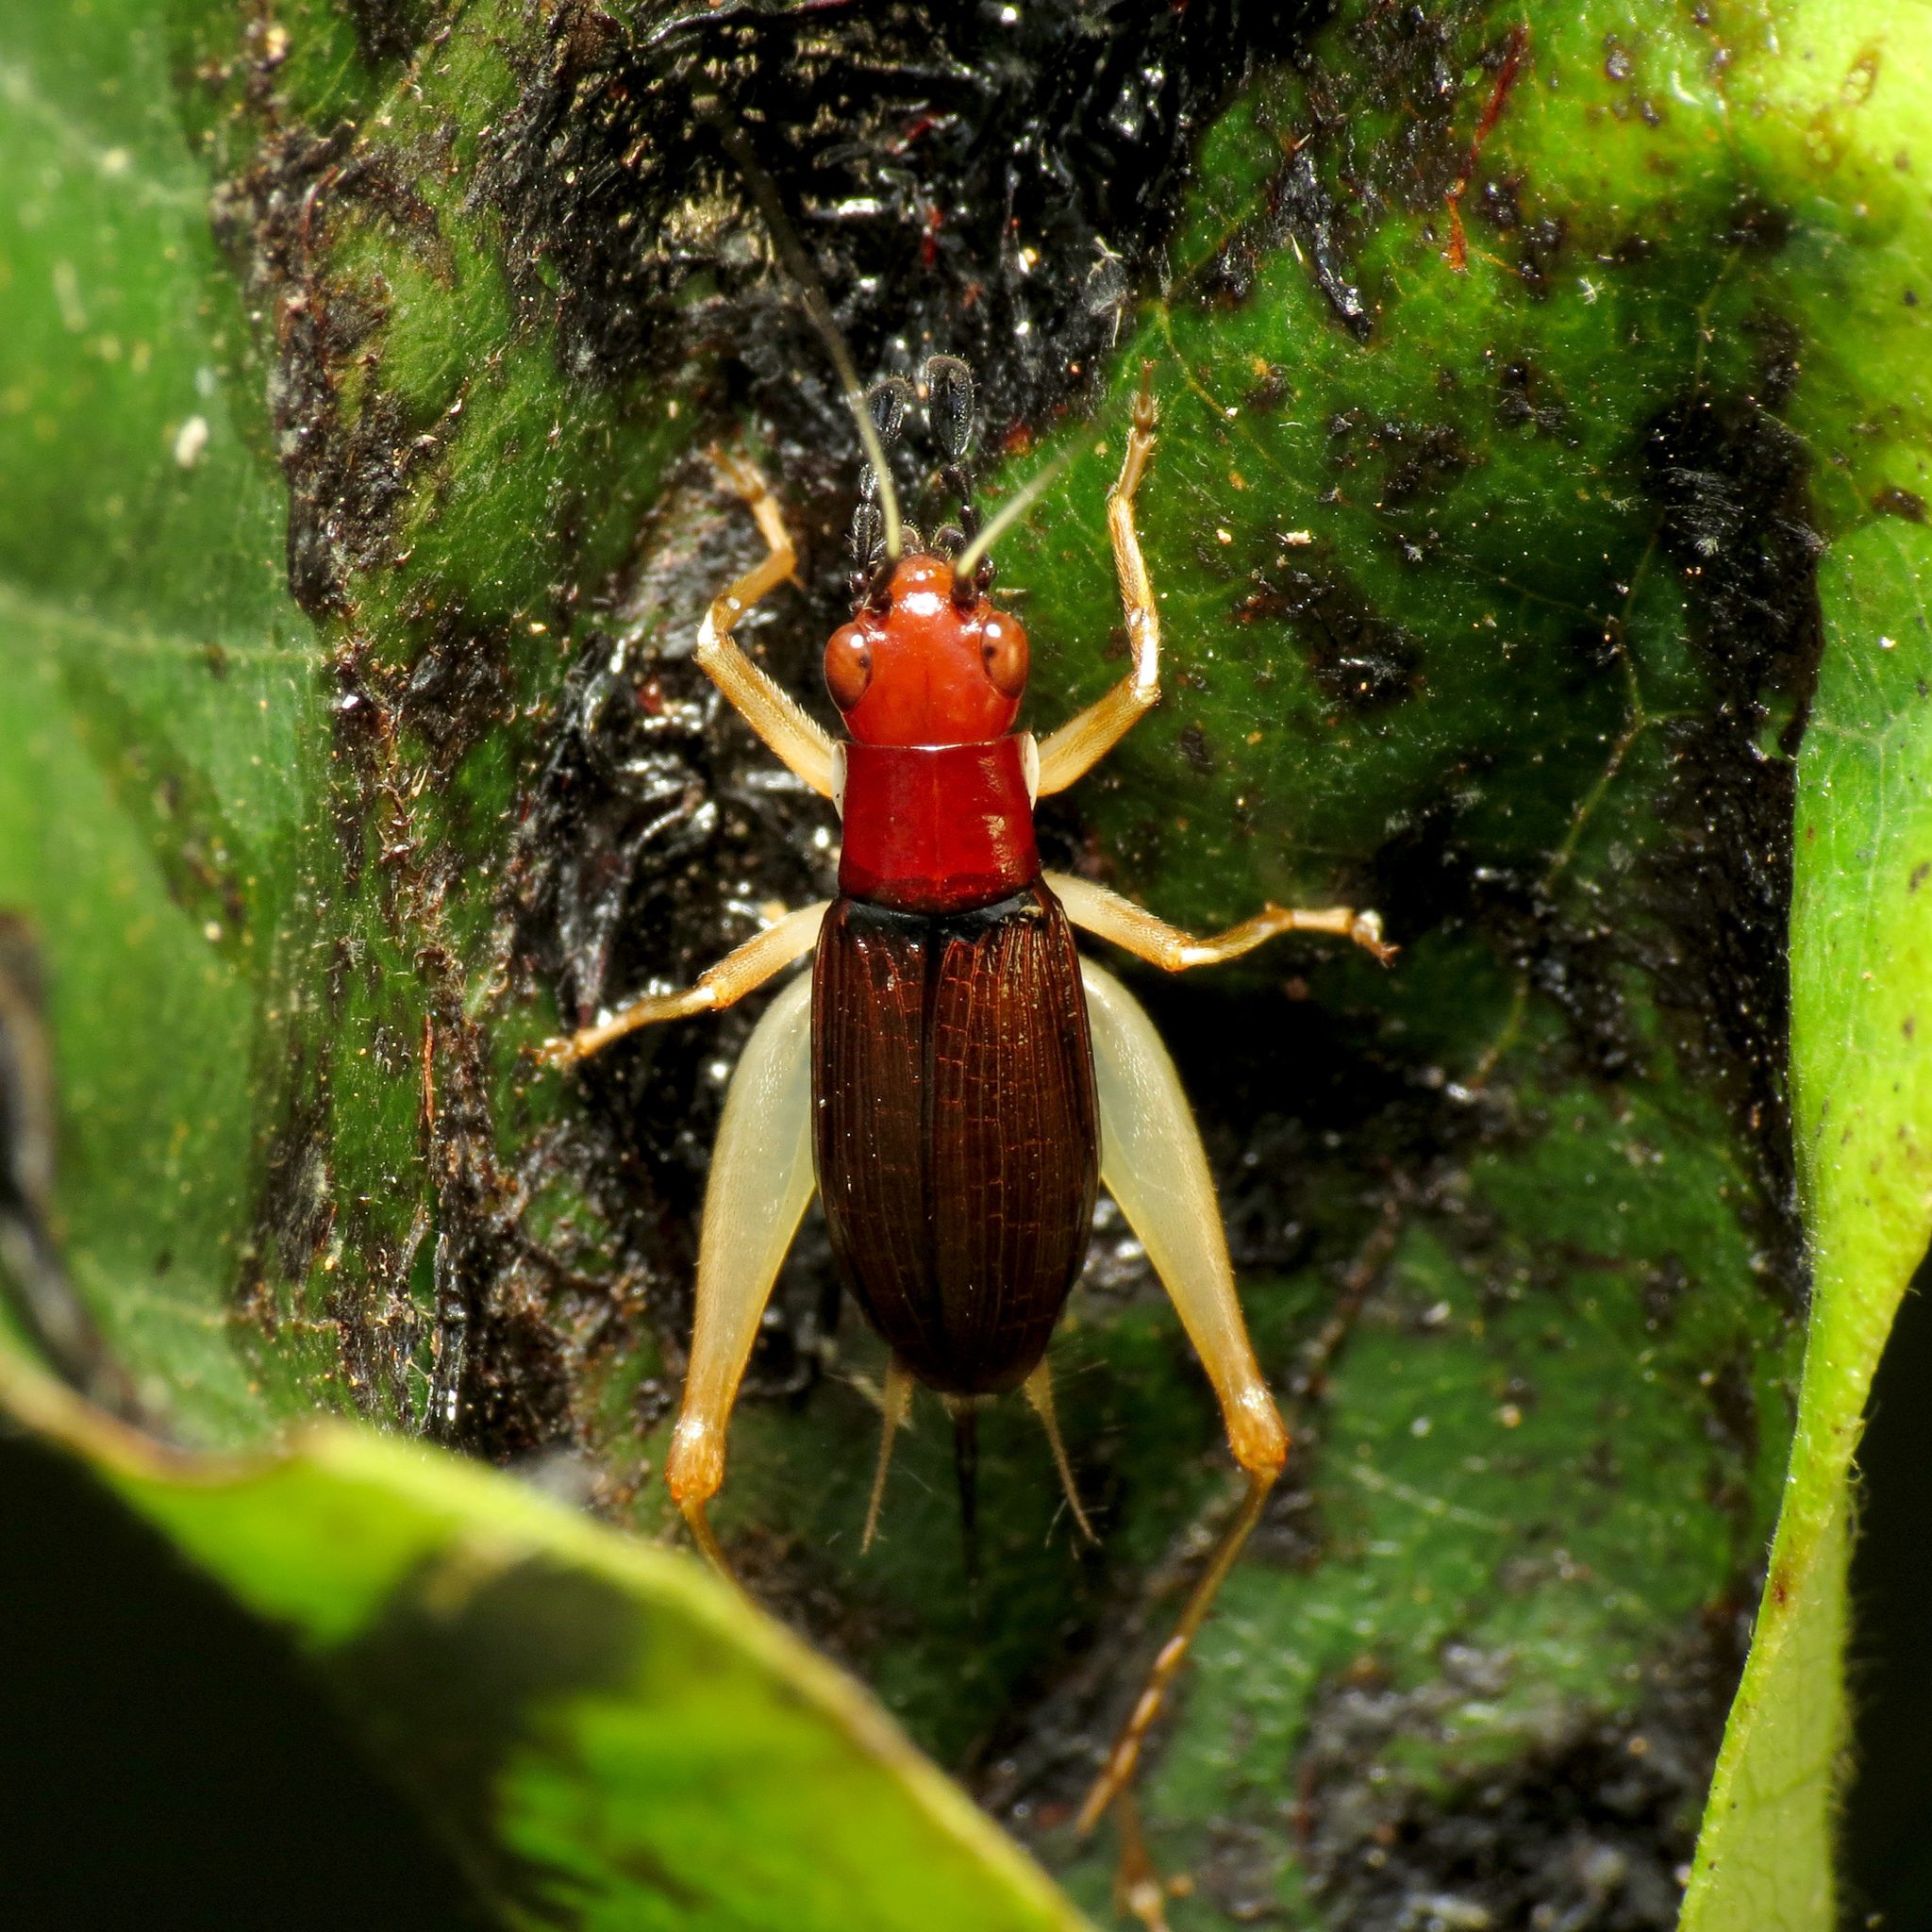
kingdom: Animalia
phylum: Arthropoda
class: Insecta
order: Orthoptera
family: Trigonidiidae
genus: Phyllopalpus
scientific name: Phyllopalpus pulchellus
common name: Handsome trig
